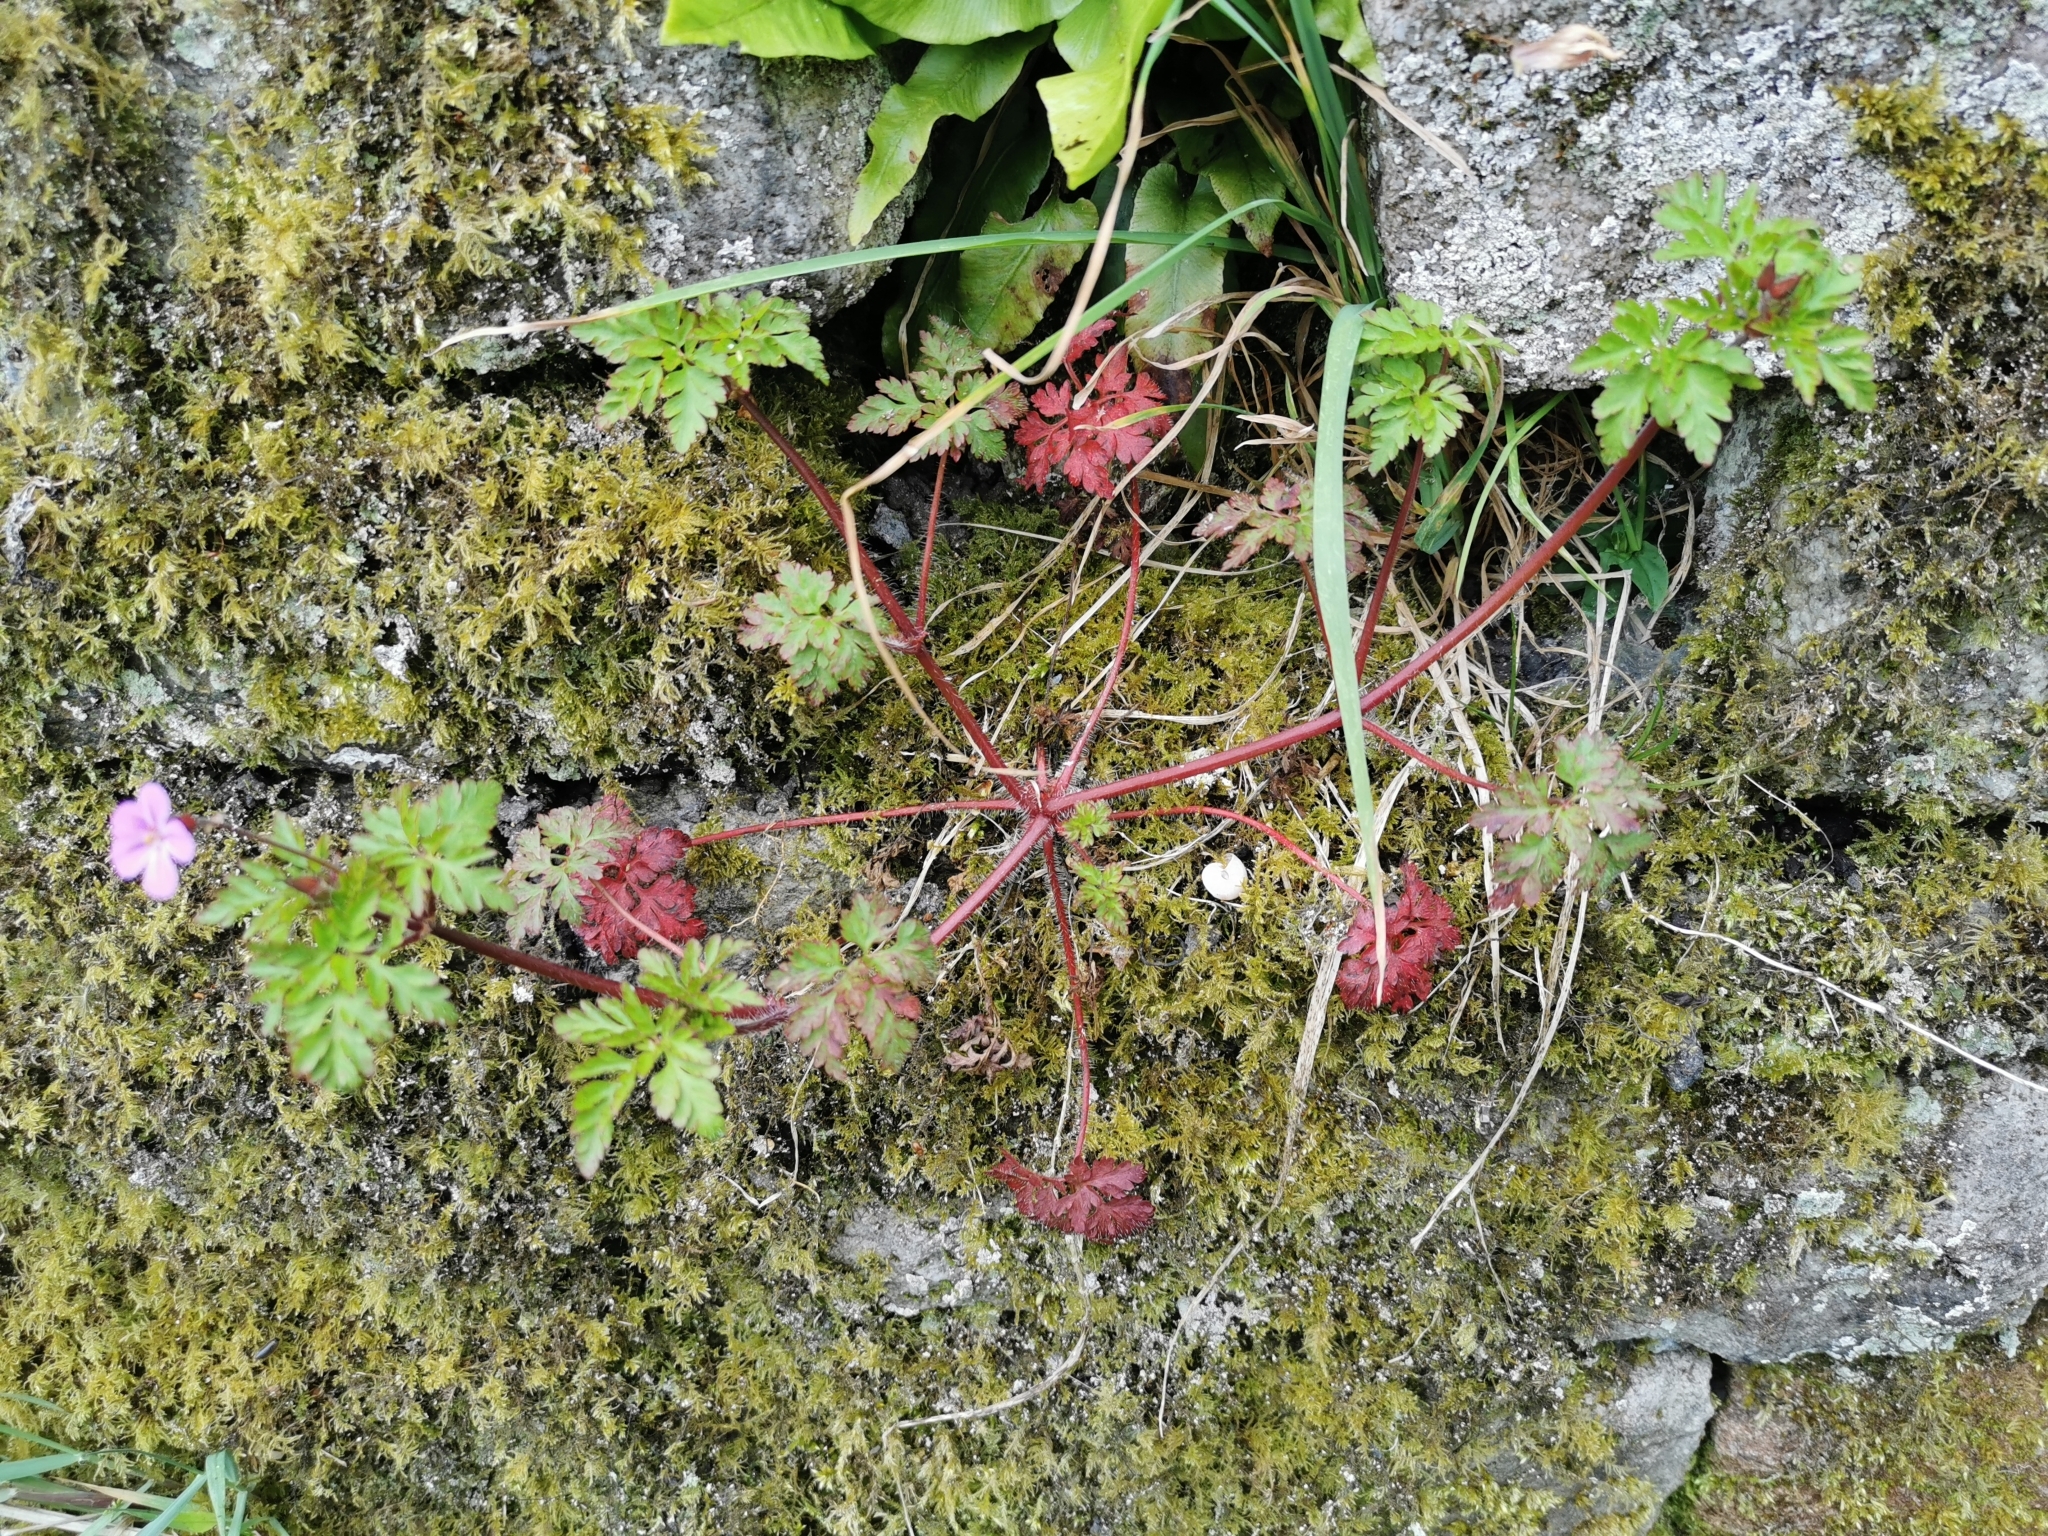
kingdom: Plantae
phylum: Tracheophyta
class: Magnoliopsida
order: Geraniales
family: Geraniaceae
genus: Geranium
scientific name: Geranium robertianum
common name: Herb-robert
